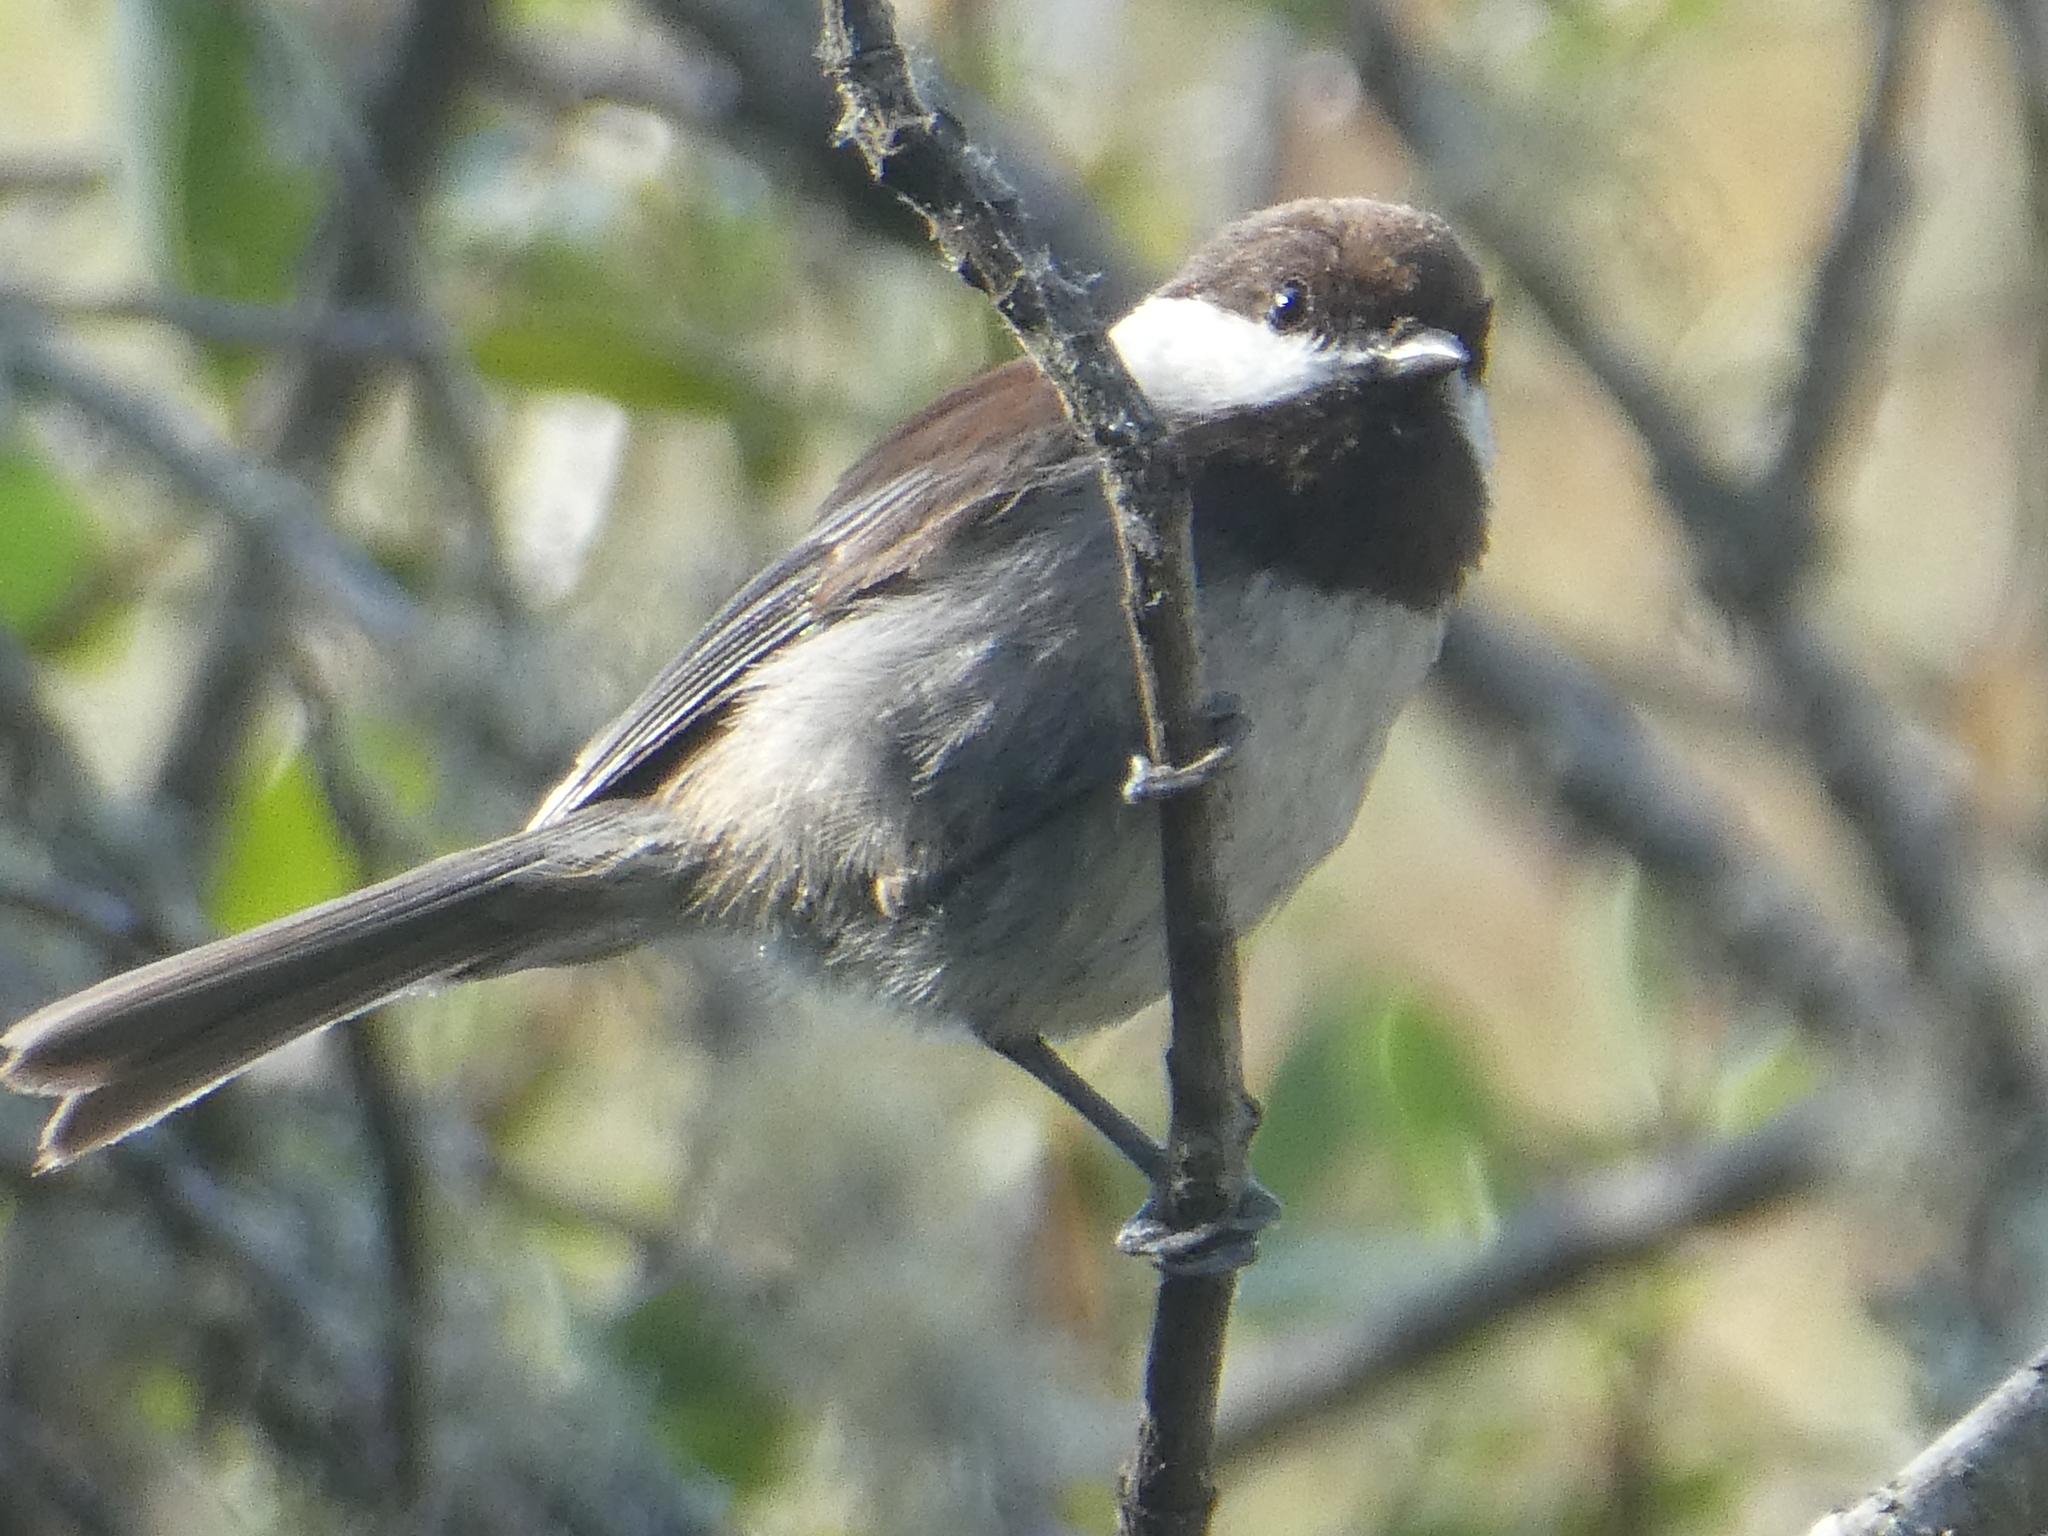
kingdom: Animalia
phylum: Chordata
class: Aves
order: Passeriformes
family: Paridae
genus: Poecile
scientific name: Poecile rufescens
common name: Chestnut-backed chickadee
